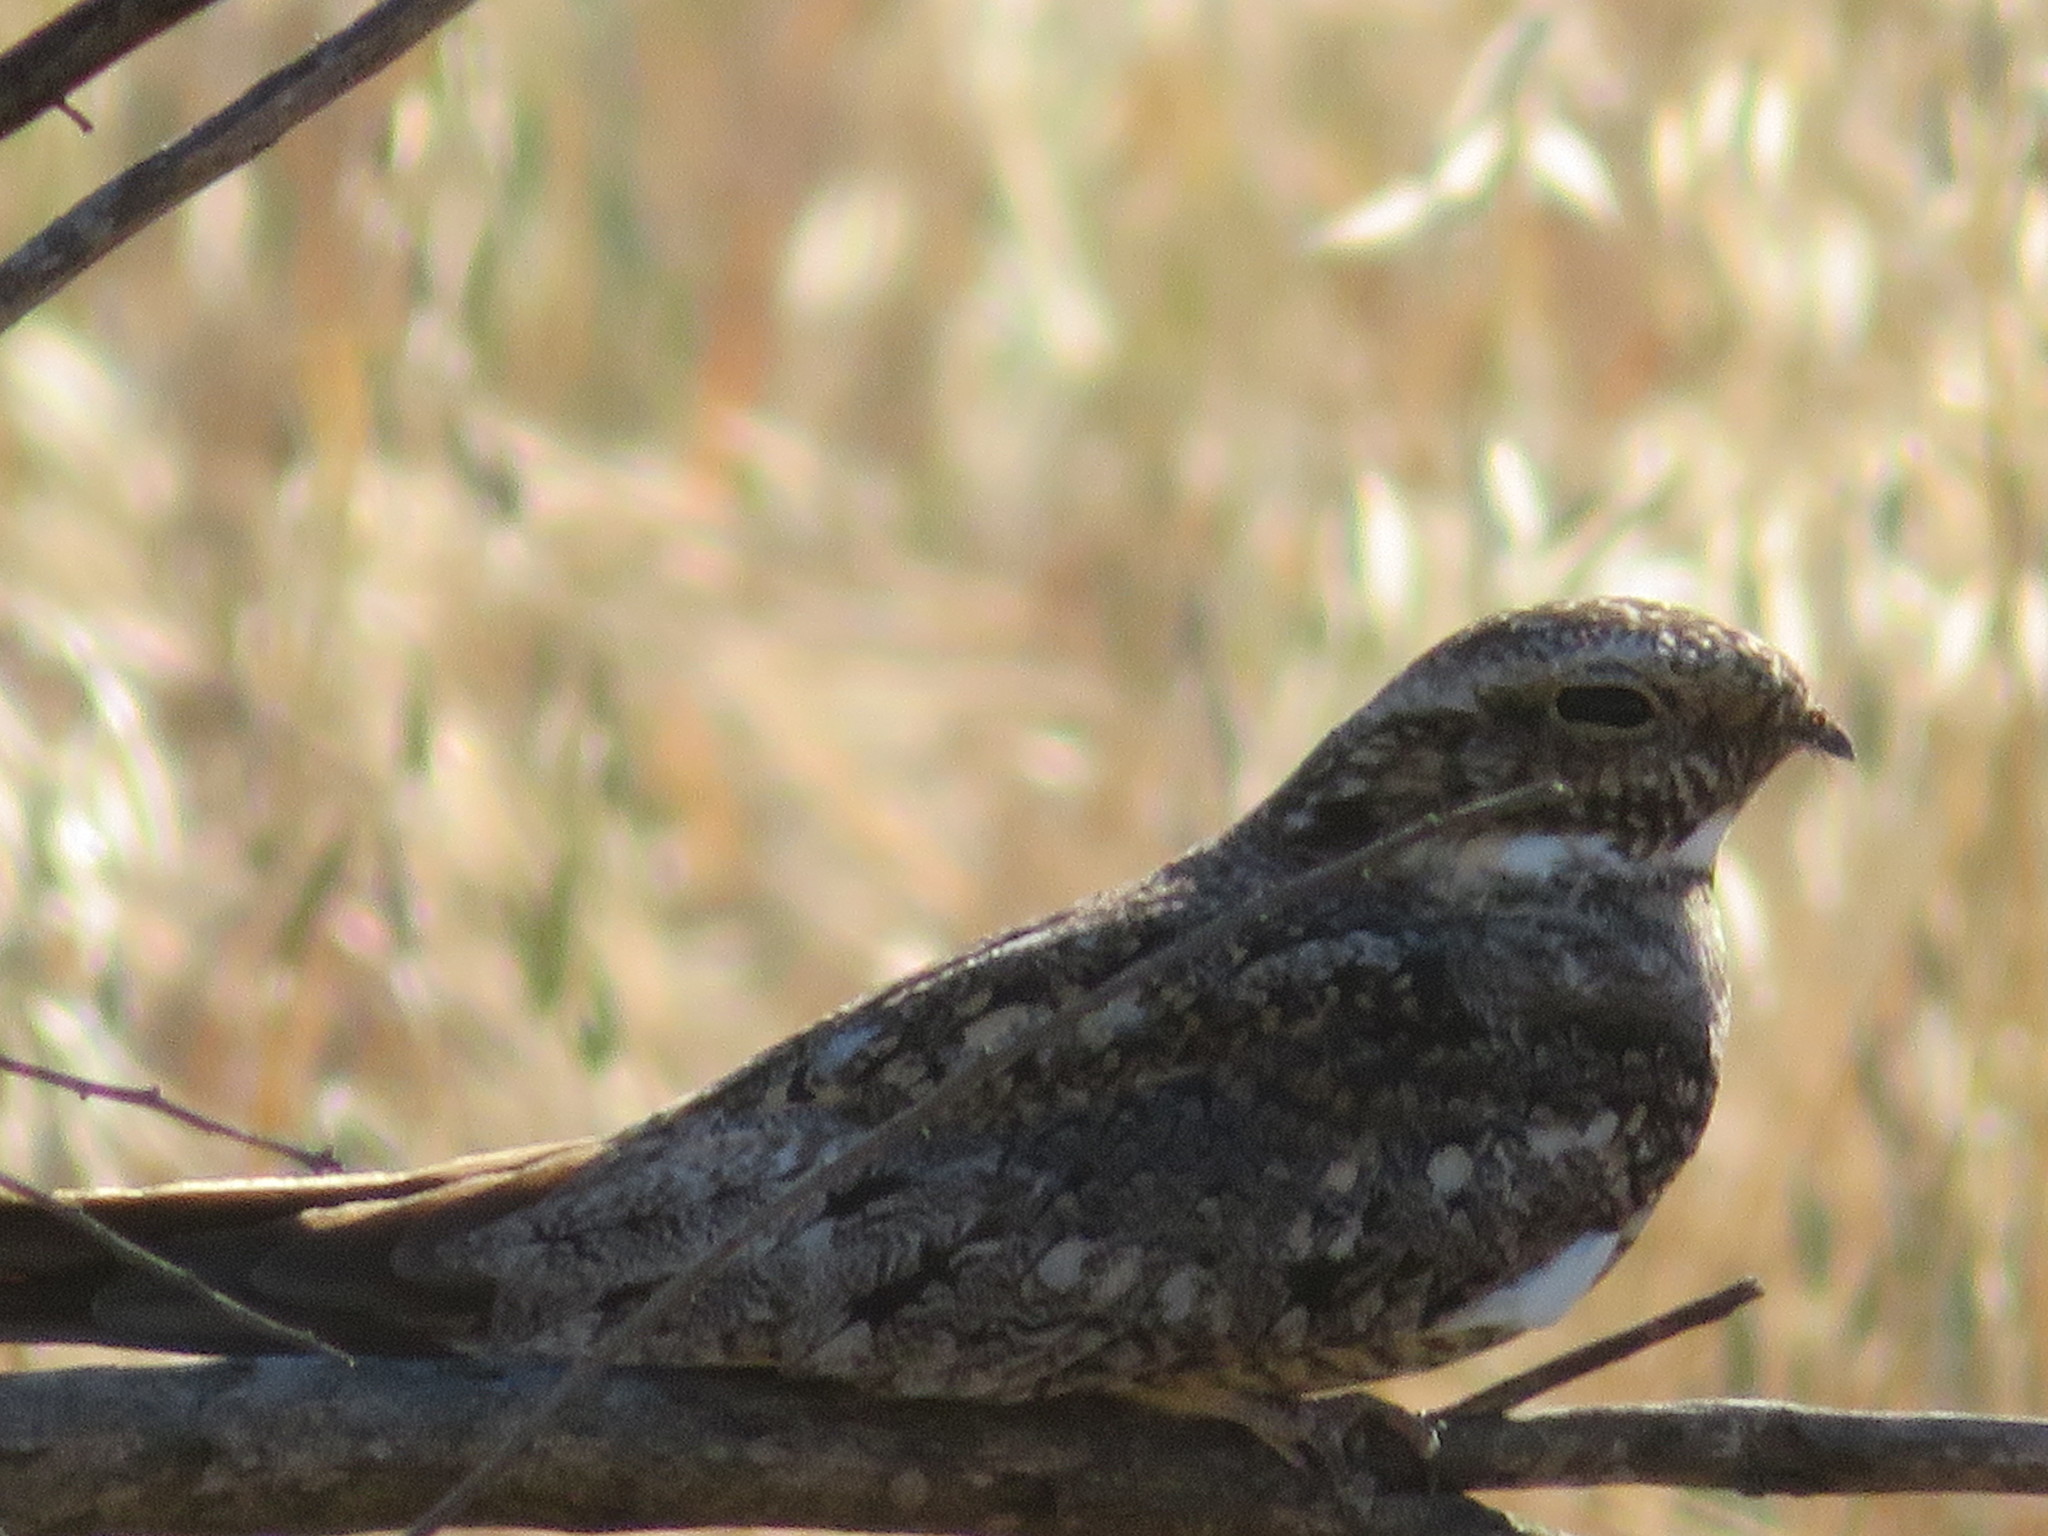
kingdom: Animalia
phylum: Chordata
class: Aves
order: Caprimulgiformes
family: Caprimulgidae
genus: Chordeiles
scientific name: Chordeiles acutipennis
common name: Lesser nighthawk
